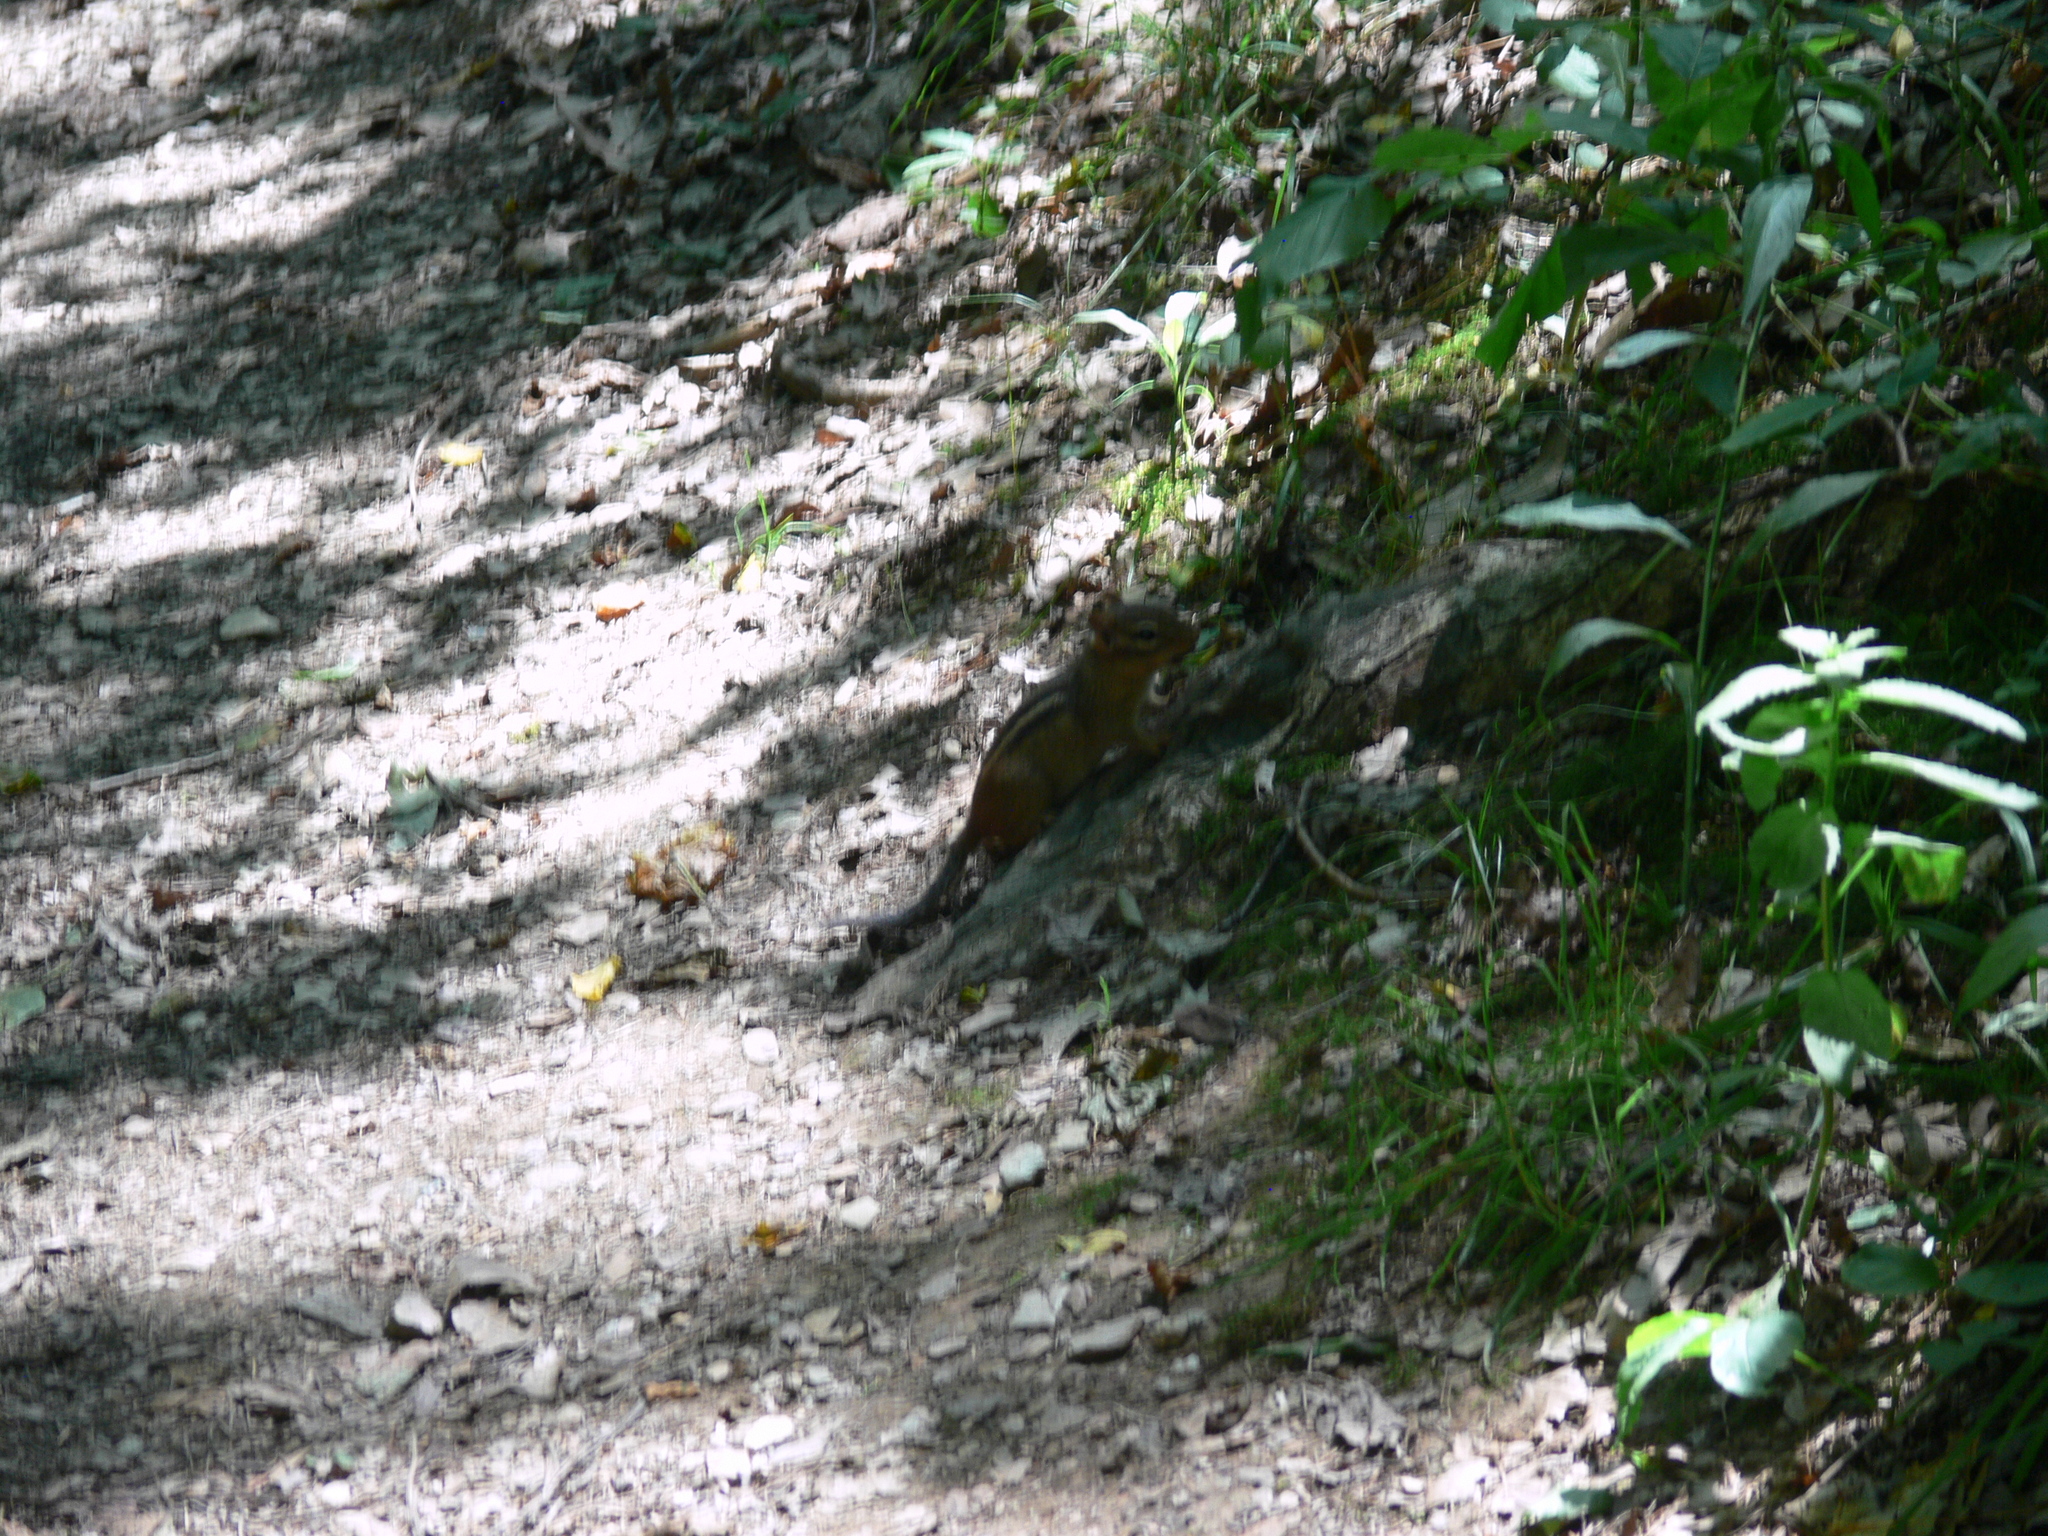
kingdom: Animalia
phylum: Chordata
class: Mammalia
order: Rodentia
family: Sciuridae
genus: Tamias
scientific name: Tamias striatus
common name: Eastern chipmunk
